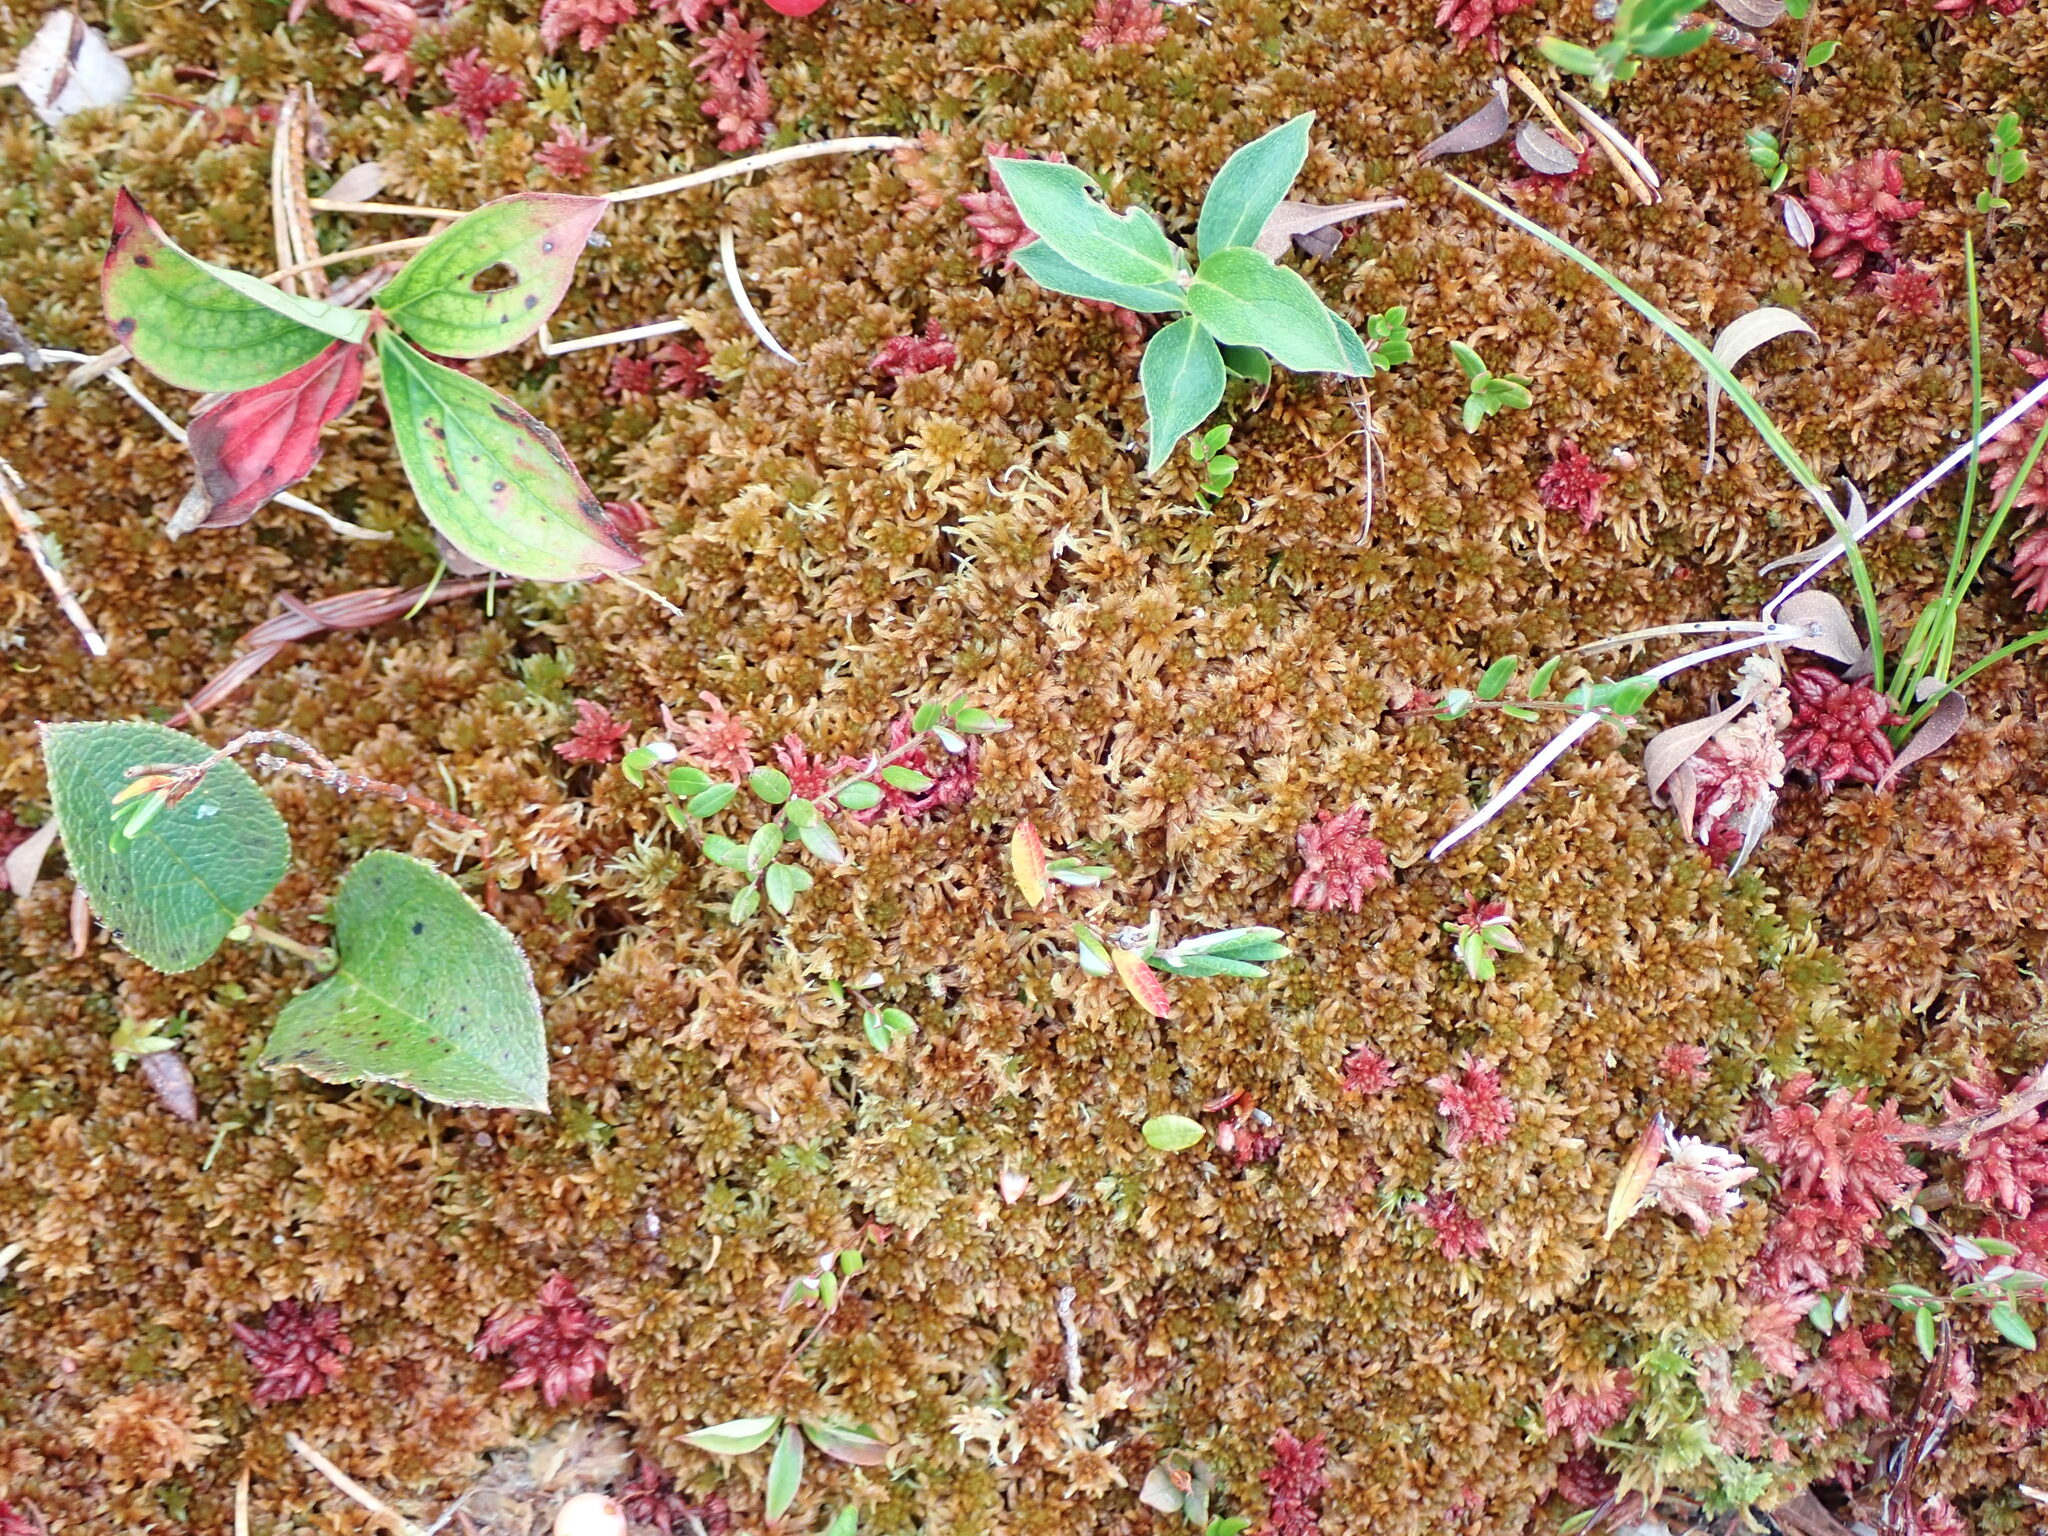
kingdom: Plantae
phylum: Bryophyta
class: Sphagnopsida
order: Sphagnales
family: Sphagnaceae
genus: Sphagnum
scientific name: Sphagnum fuscum
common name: Brown peat moss
